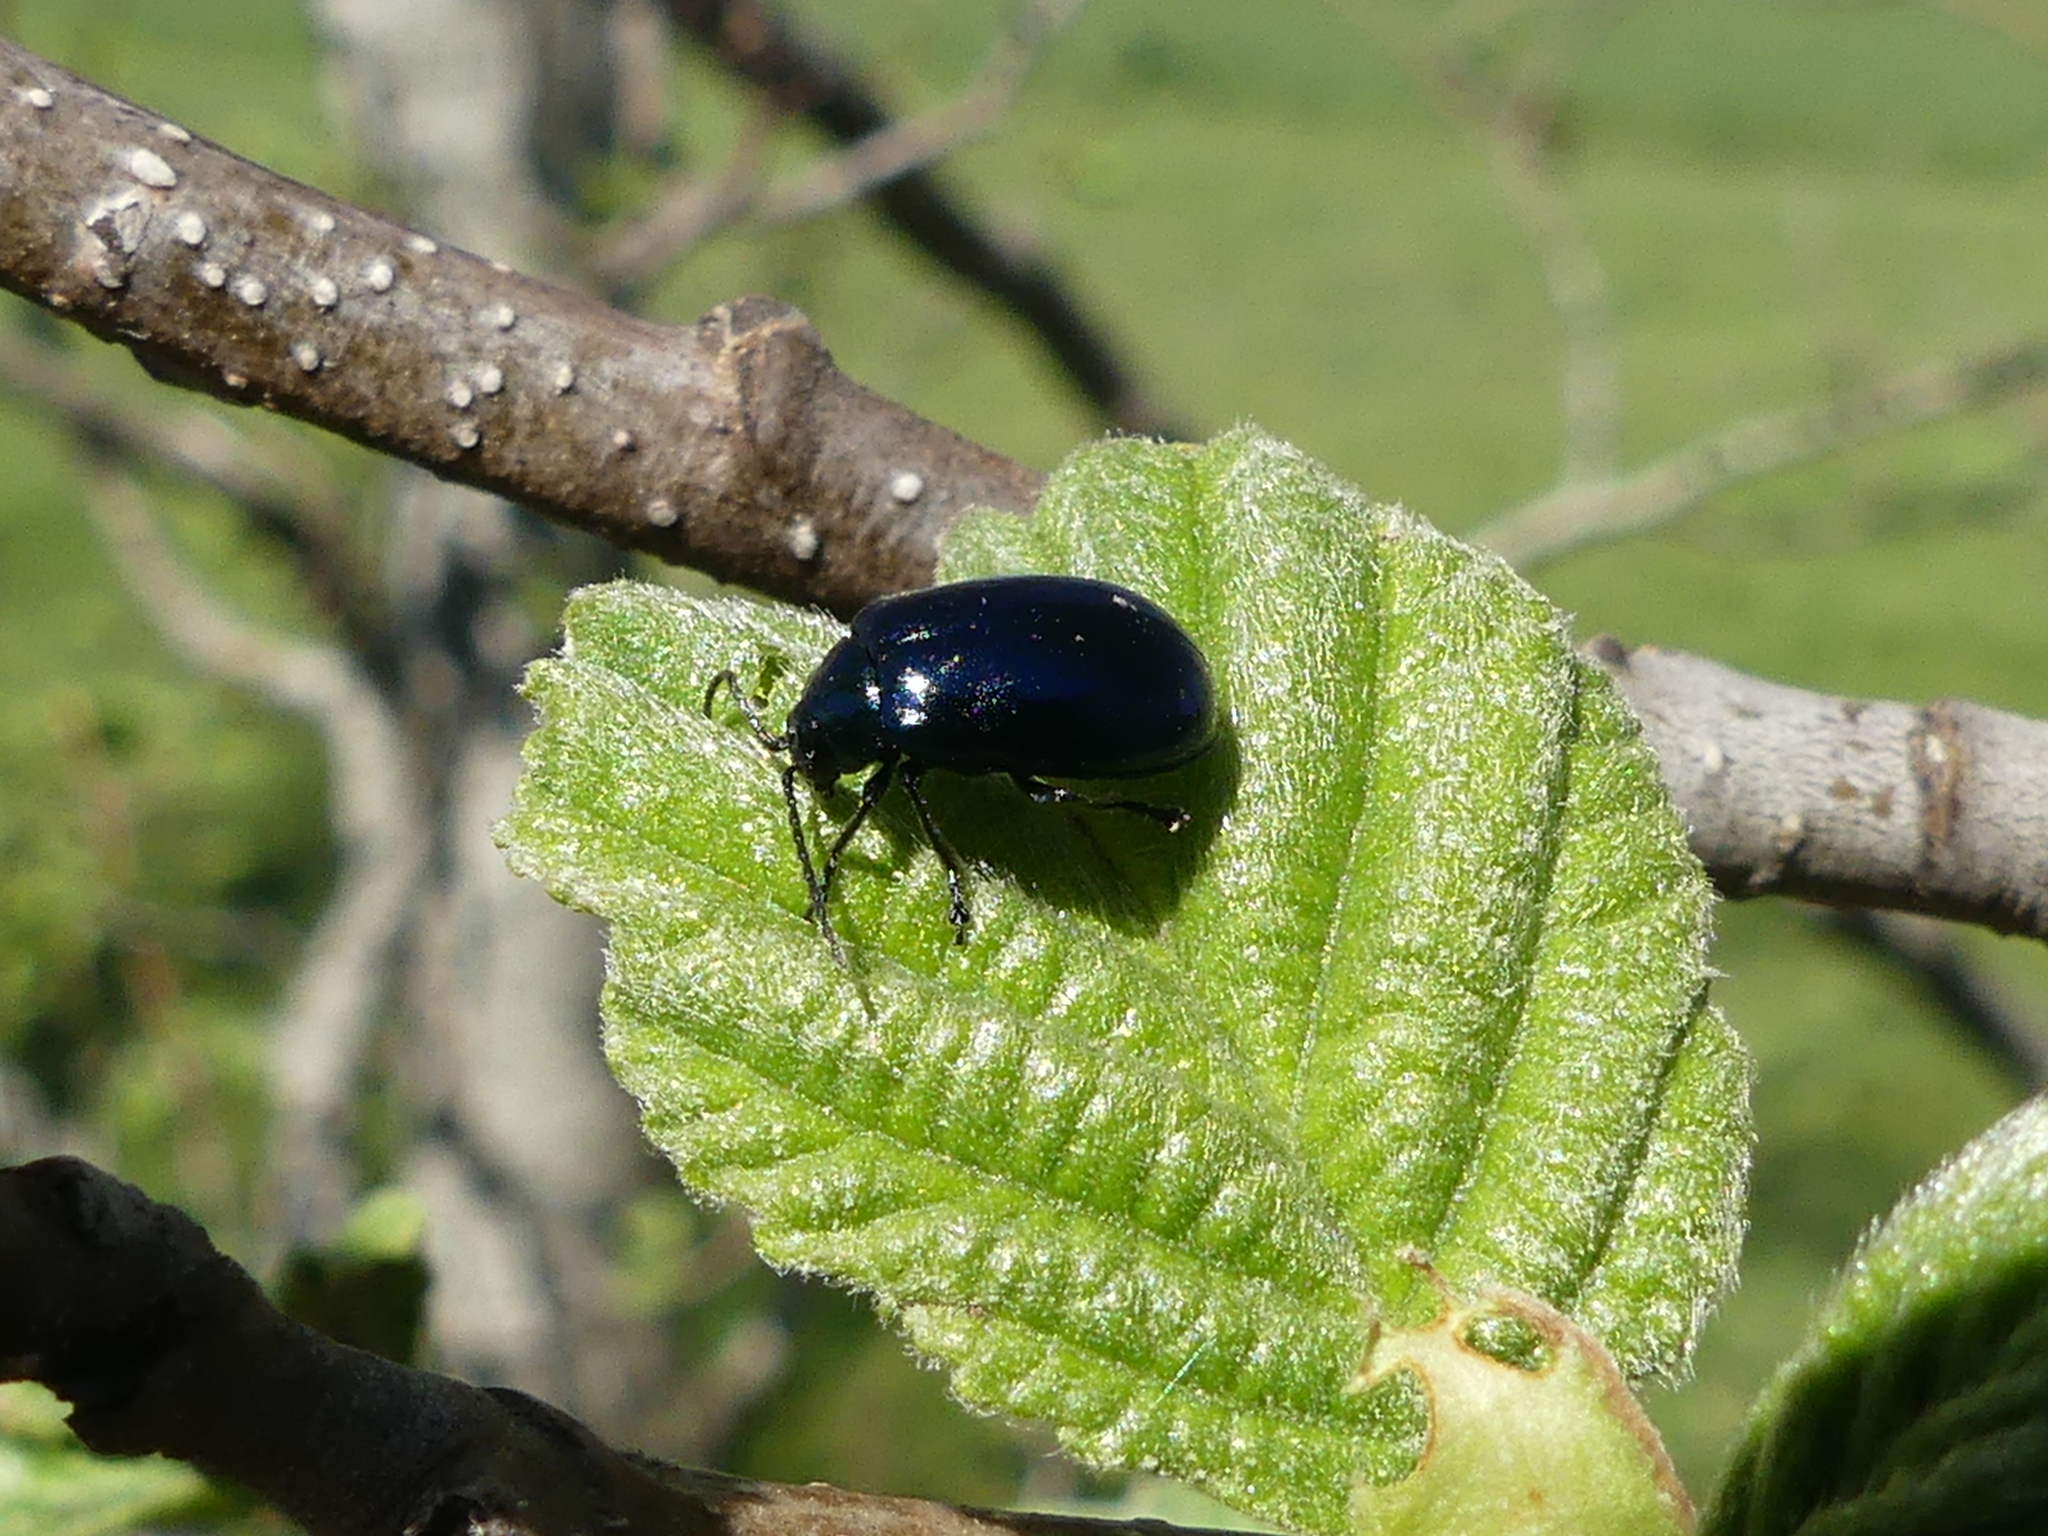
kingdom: Animalia
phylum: Arthropoda
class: Insecta
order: Coleoptera
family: Chrysomelidae
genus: Agelastica
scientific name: Agelastica alni
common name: Alder leaf beetle
